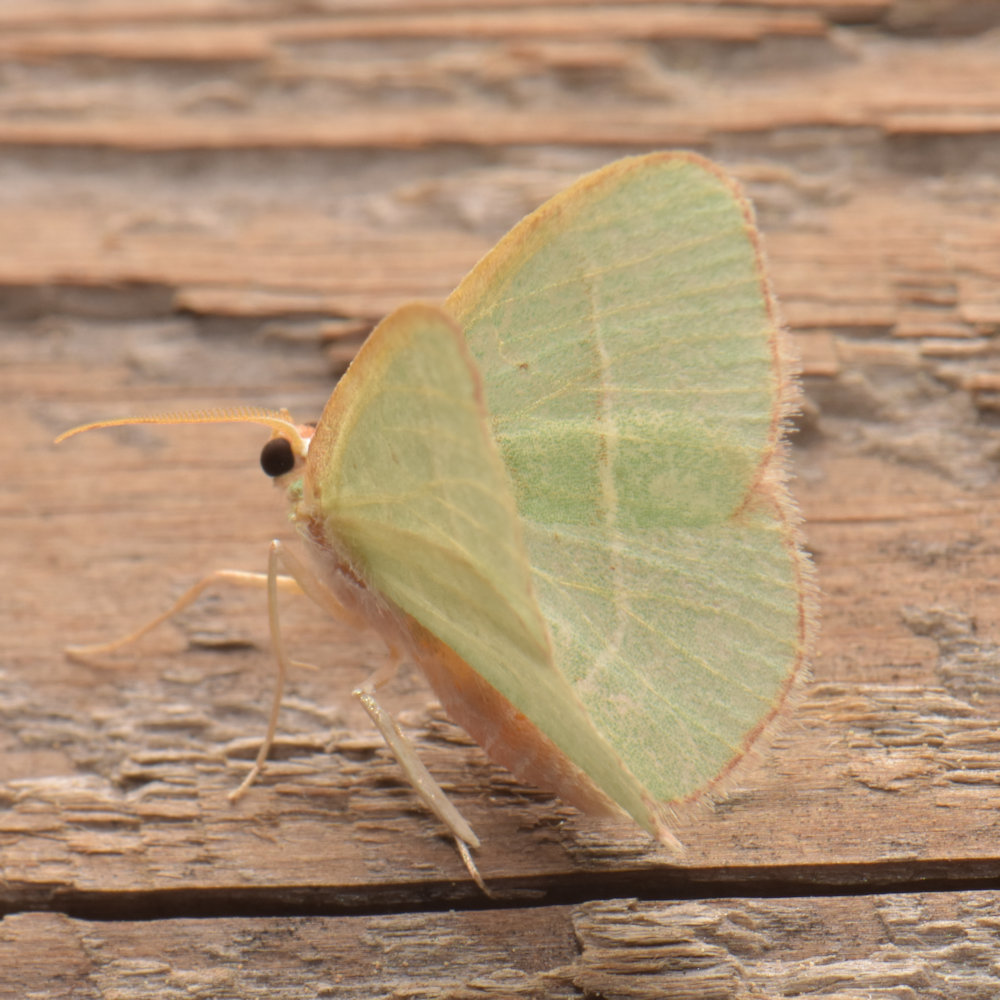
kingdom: Animalia
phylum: Arthropoda
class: Insecta
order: Lepidoptera
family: Geometridae
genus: Nemoria
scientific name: Nemoria bistriaria
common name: Red-fringed emerald
